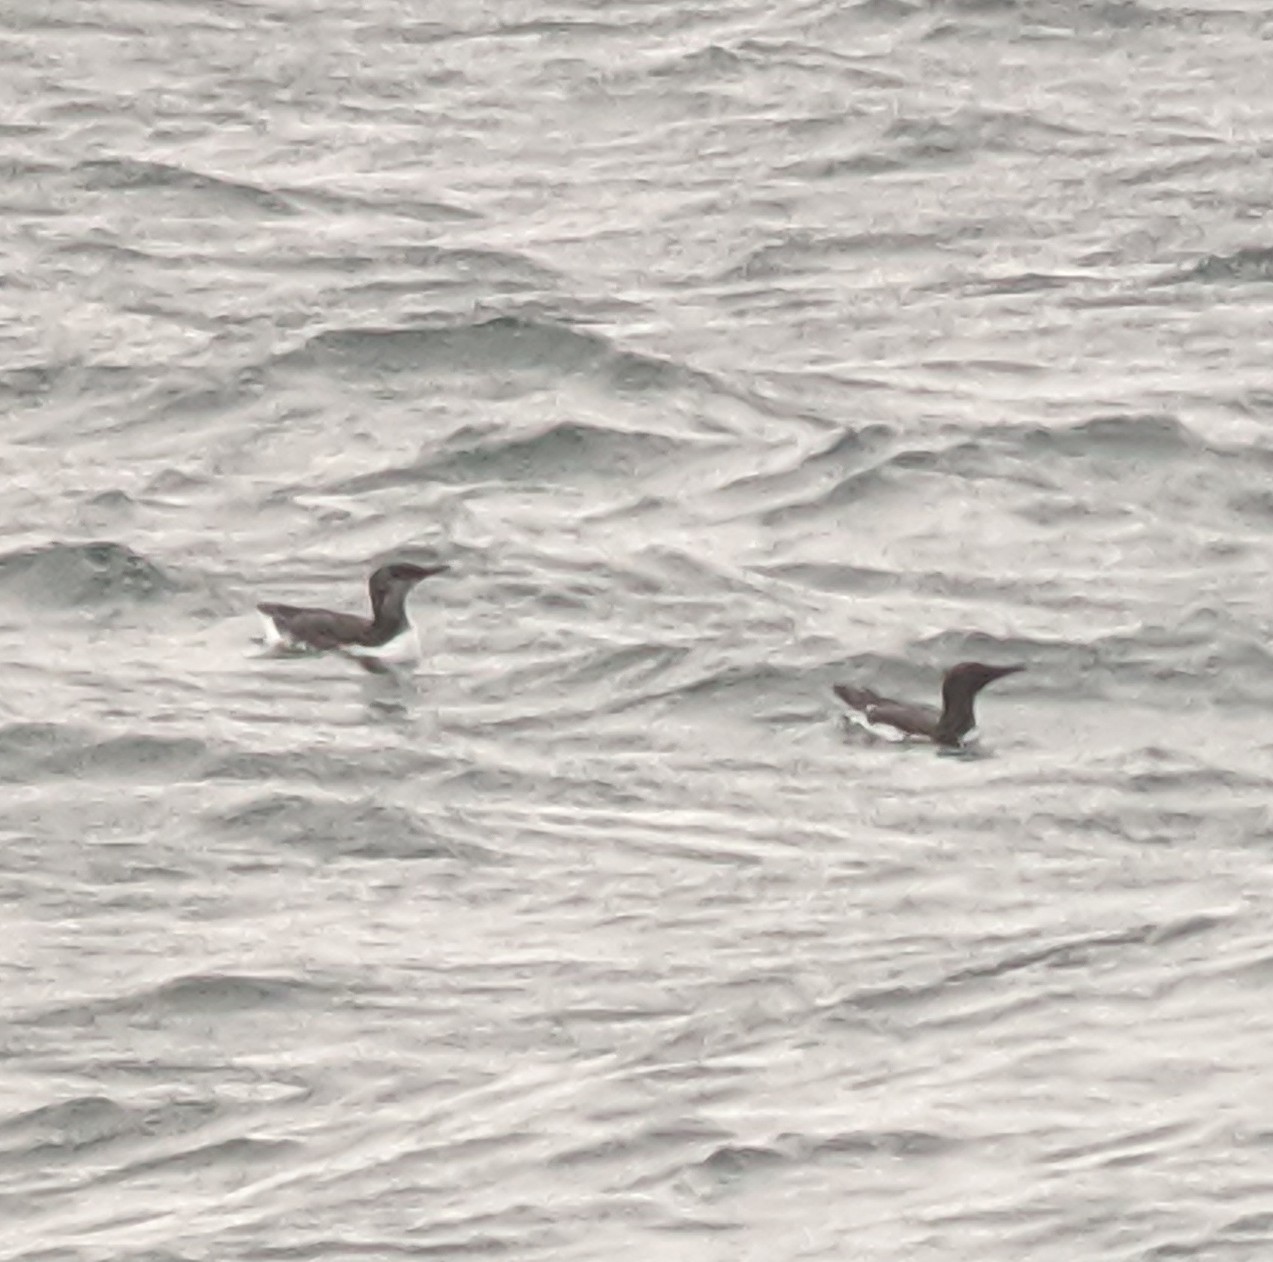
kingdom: Animalia
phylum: Chordata
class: Aves
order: Charadriiformes
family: Alcidae
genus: Uria
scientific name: Uria aalge
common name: Common murre
